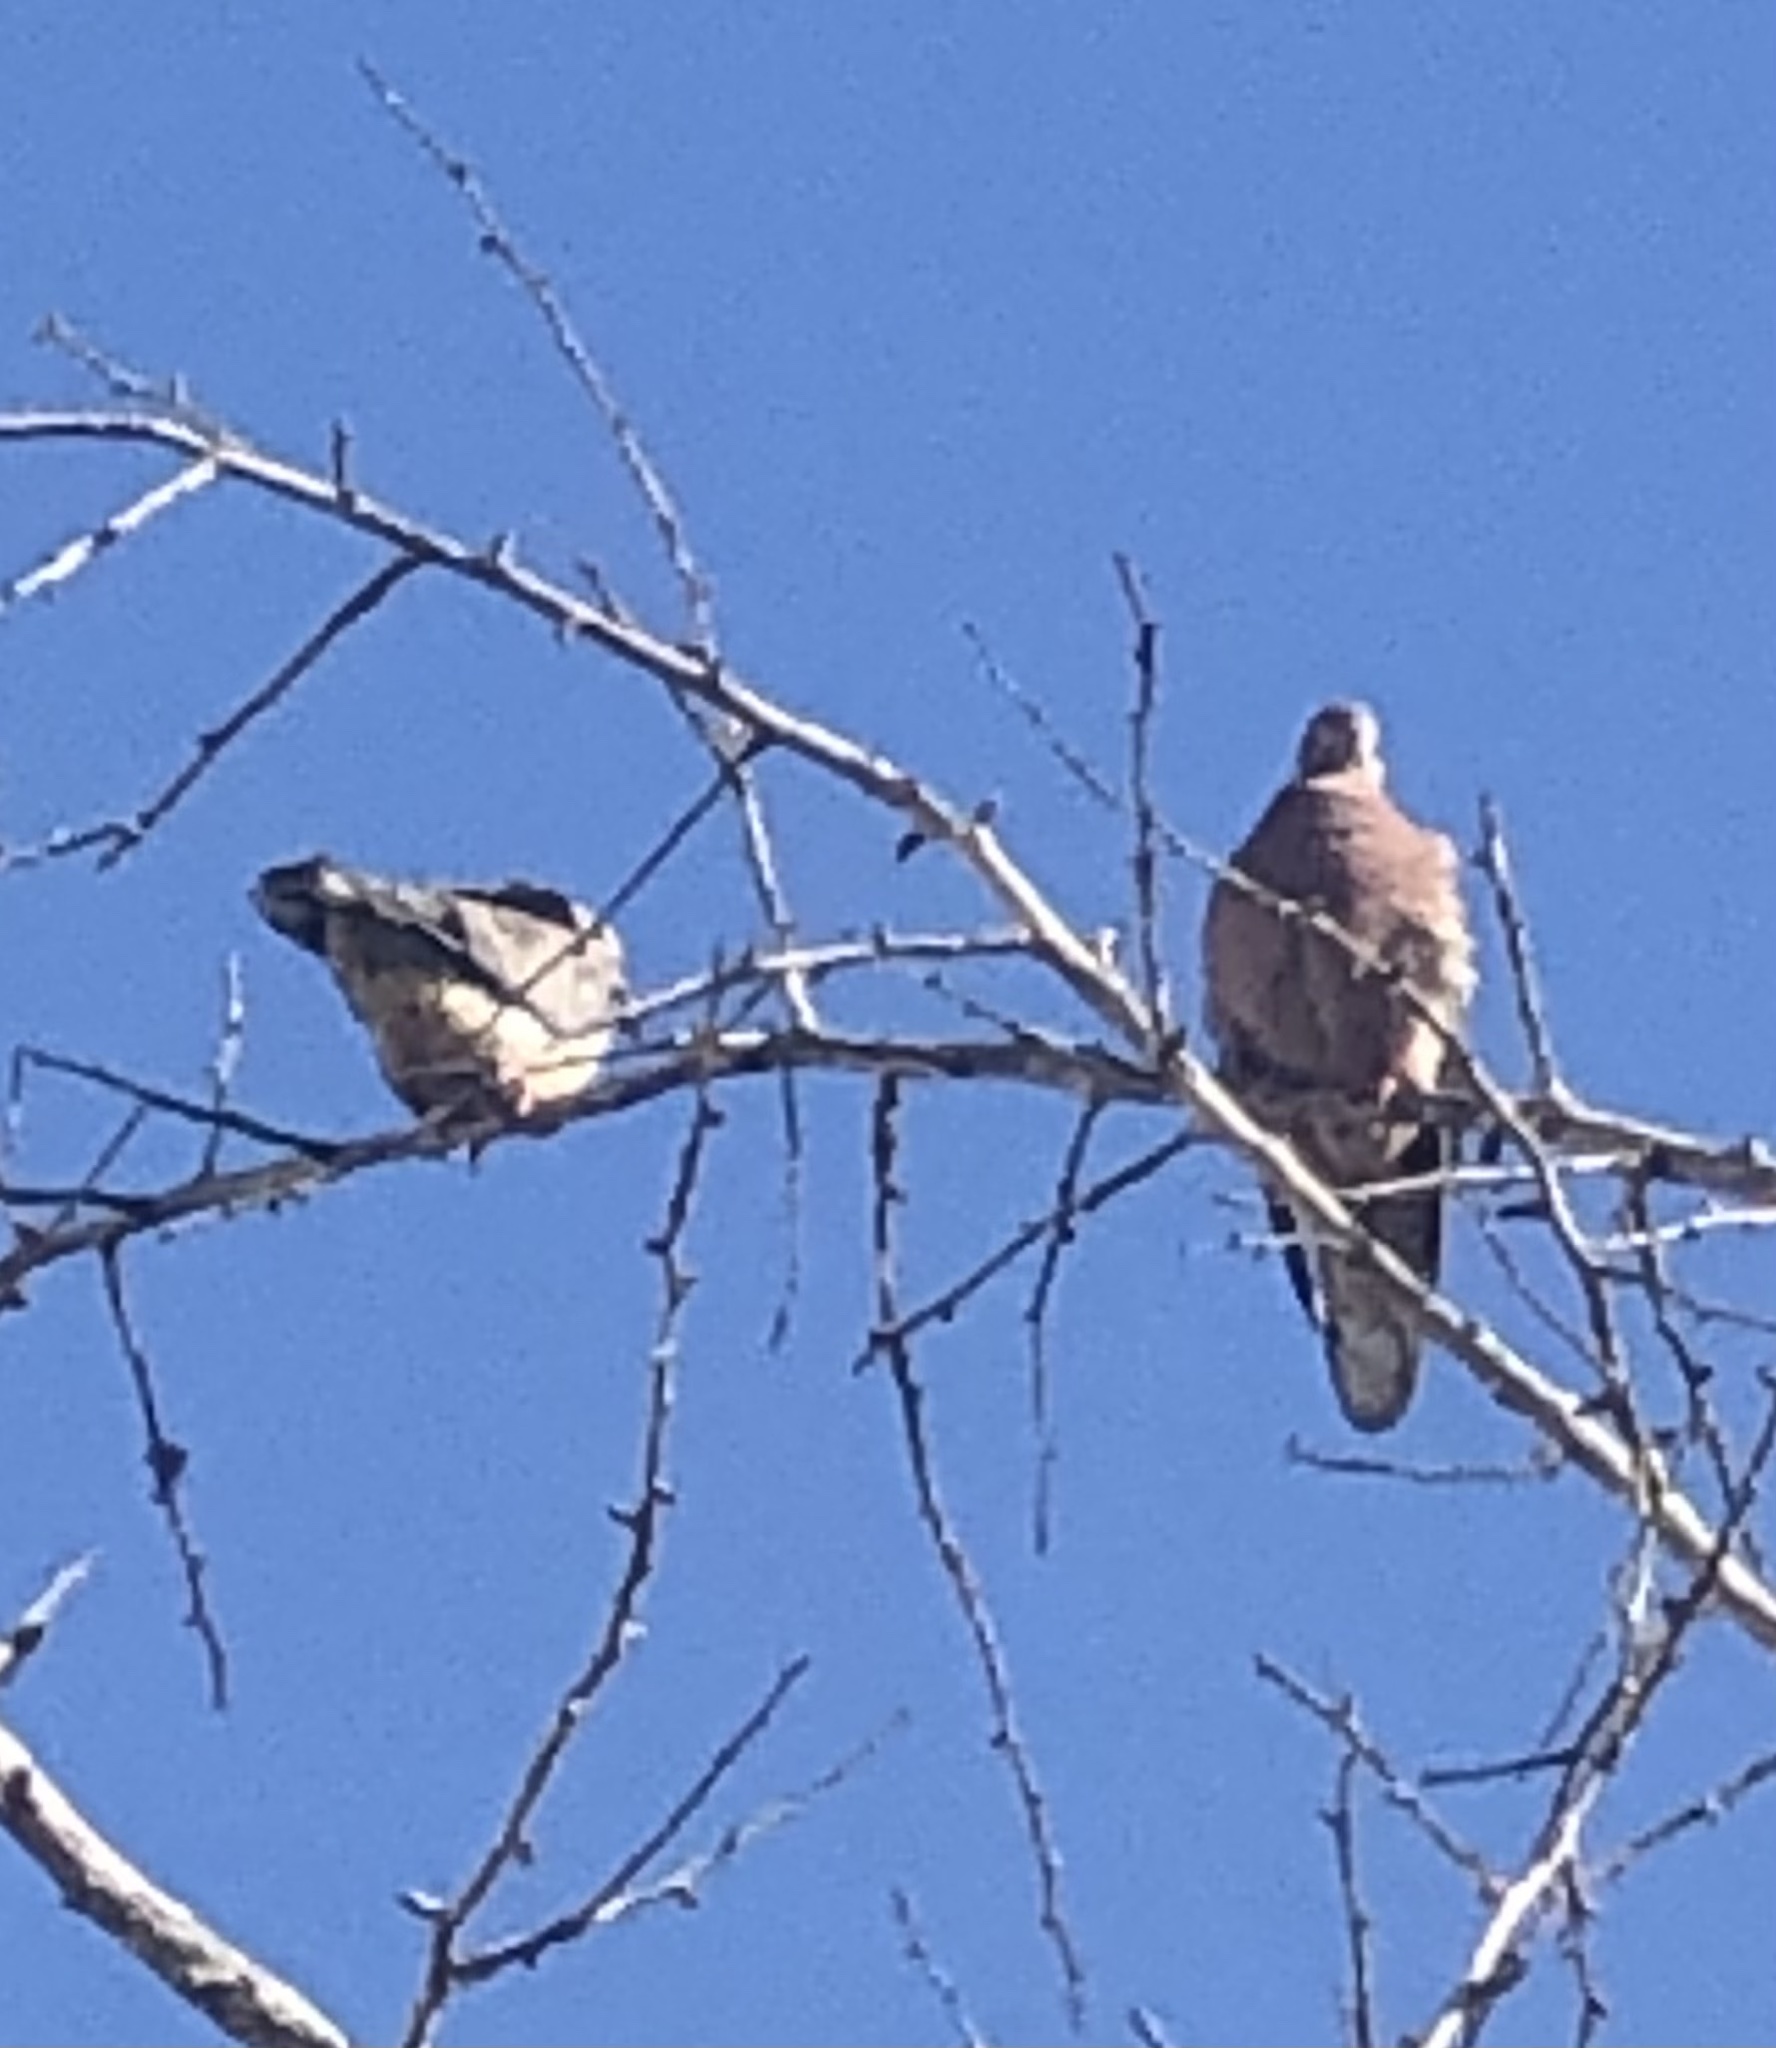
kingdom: Animalia
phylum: Chordata
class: Aves
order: Columbiformes
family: Columbidae
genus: Zenaida
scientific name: Zenaida auriculata
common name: Eared dove
